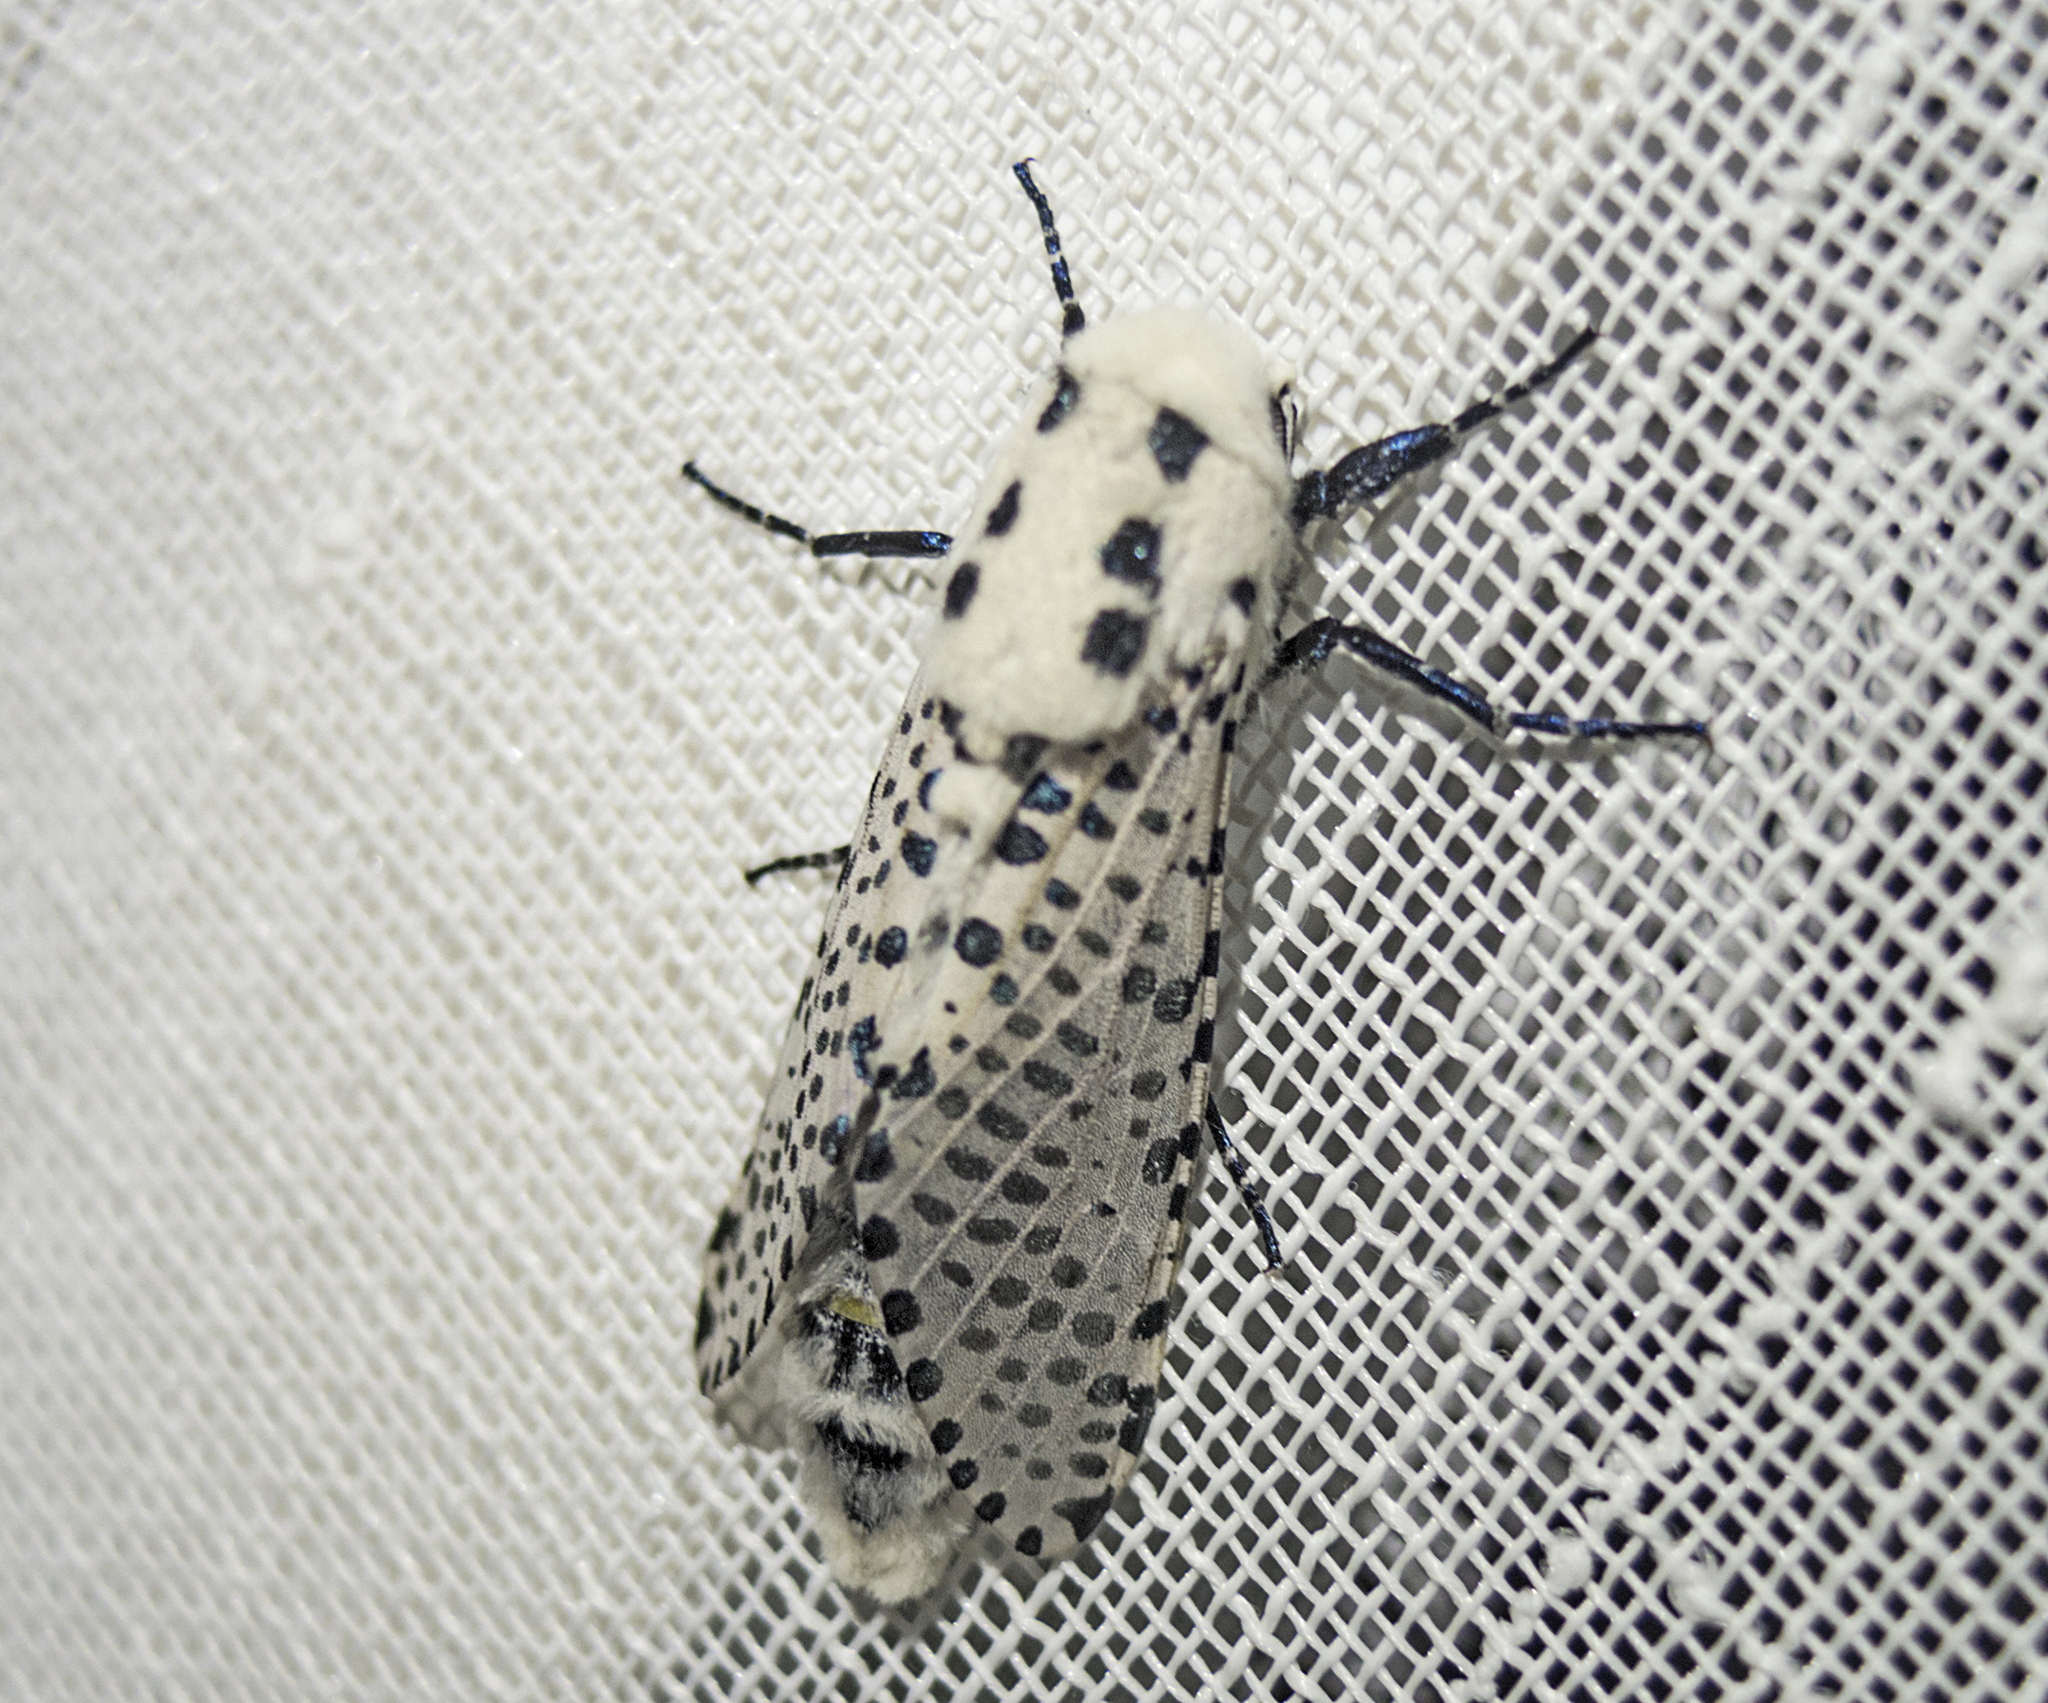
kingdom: Animalia
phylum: Arthropoda
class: Insecta
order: Lepidoptera
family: Cossidae
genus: Zeuzera
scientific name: Zeuzera pyrina
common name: Leopard moth
